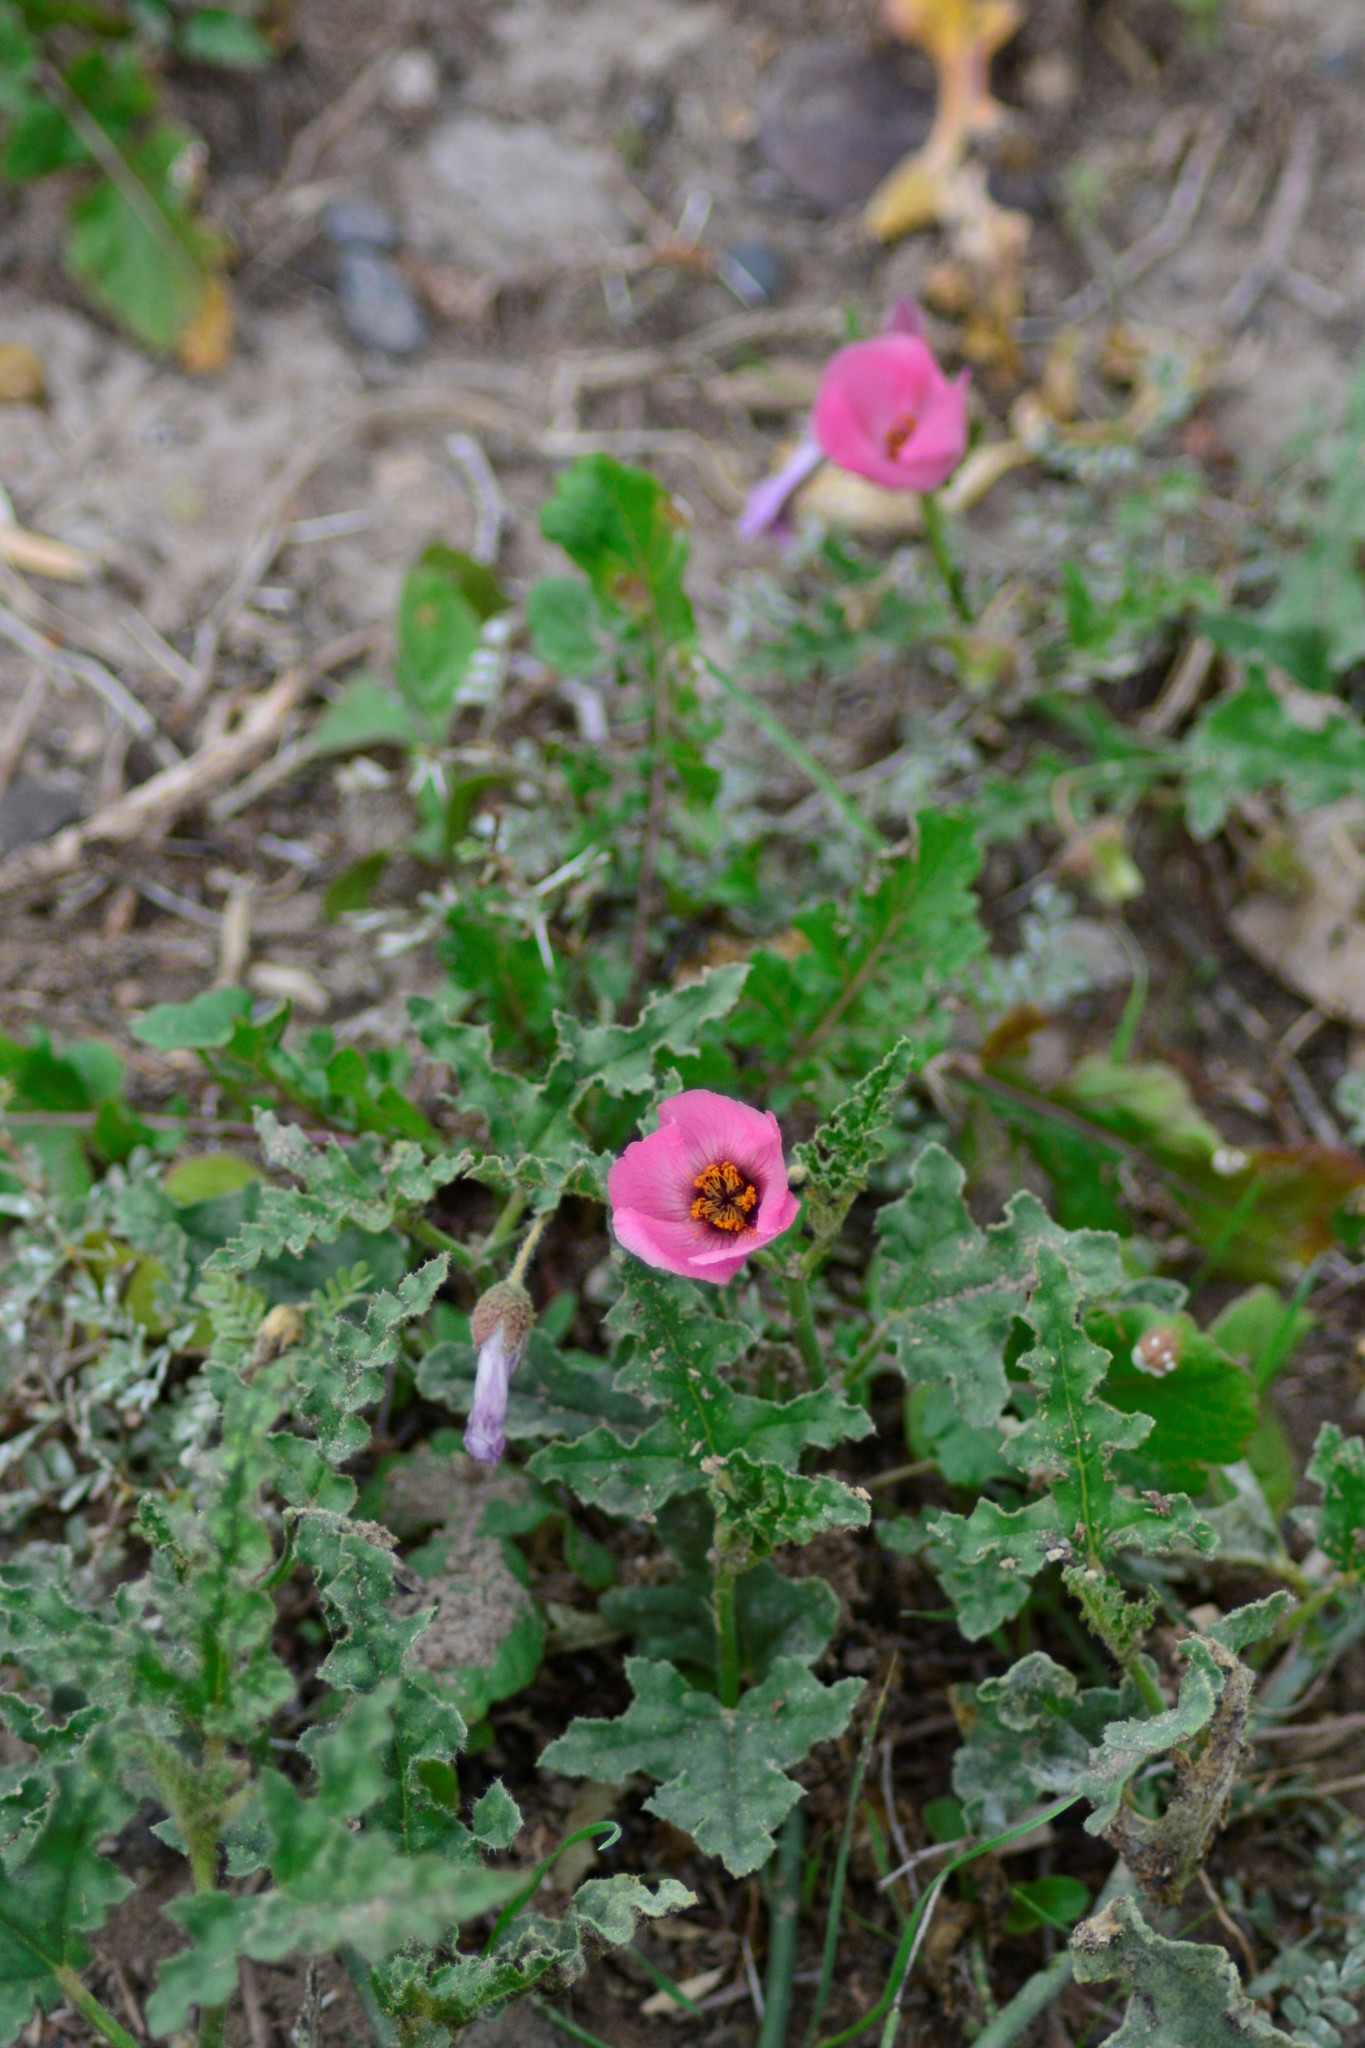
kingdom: Plantae
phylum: Tracheophyta
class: Magnoliopsida
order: Malvales
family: Malvaceae
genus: Lecanophora
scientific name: Lecanophora heterophylla
